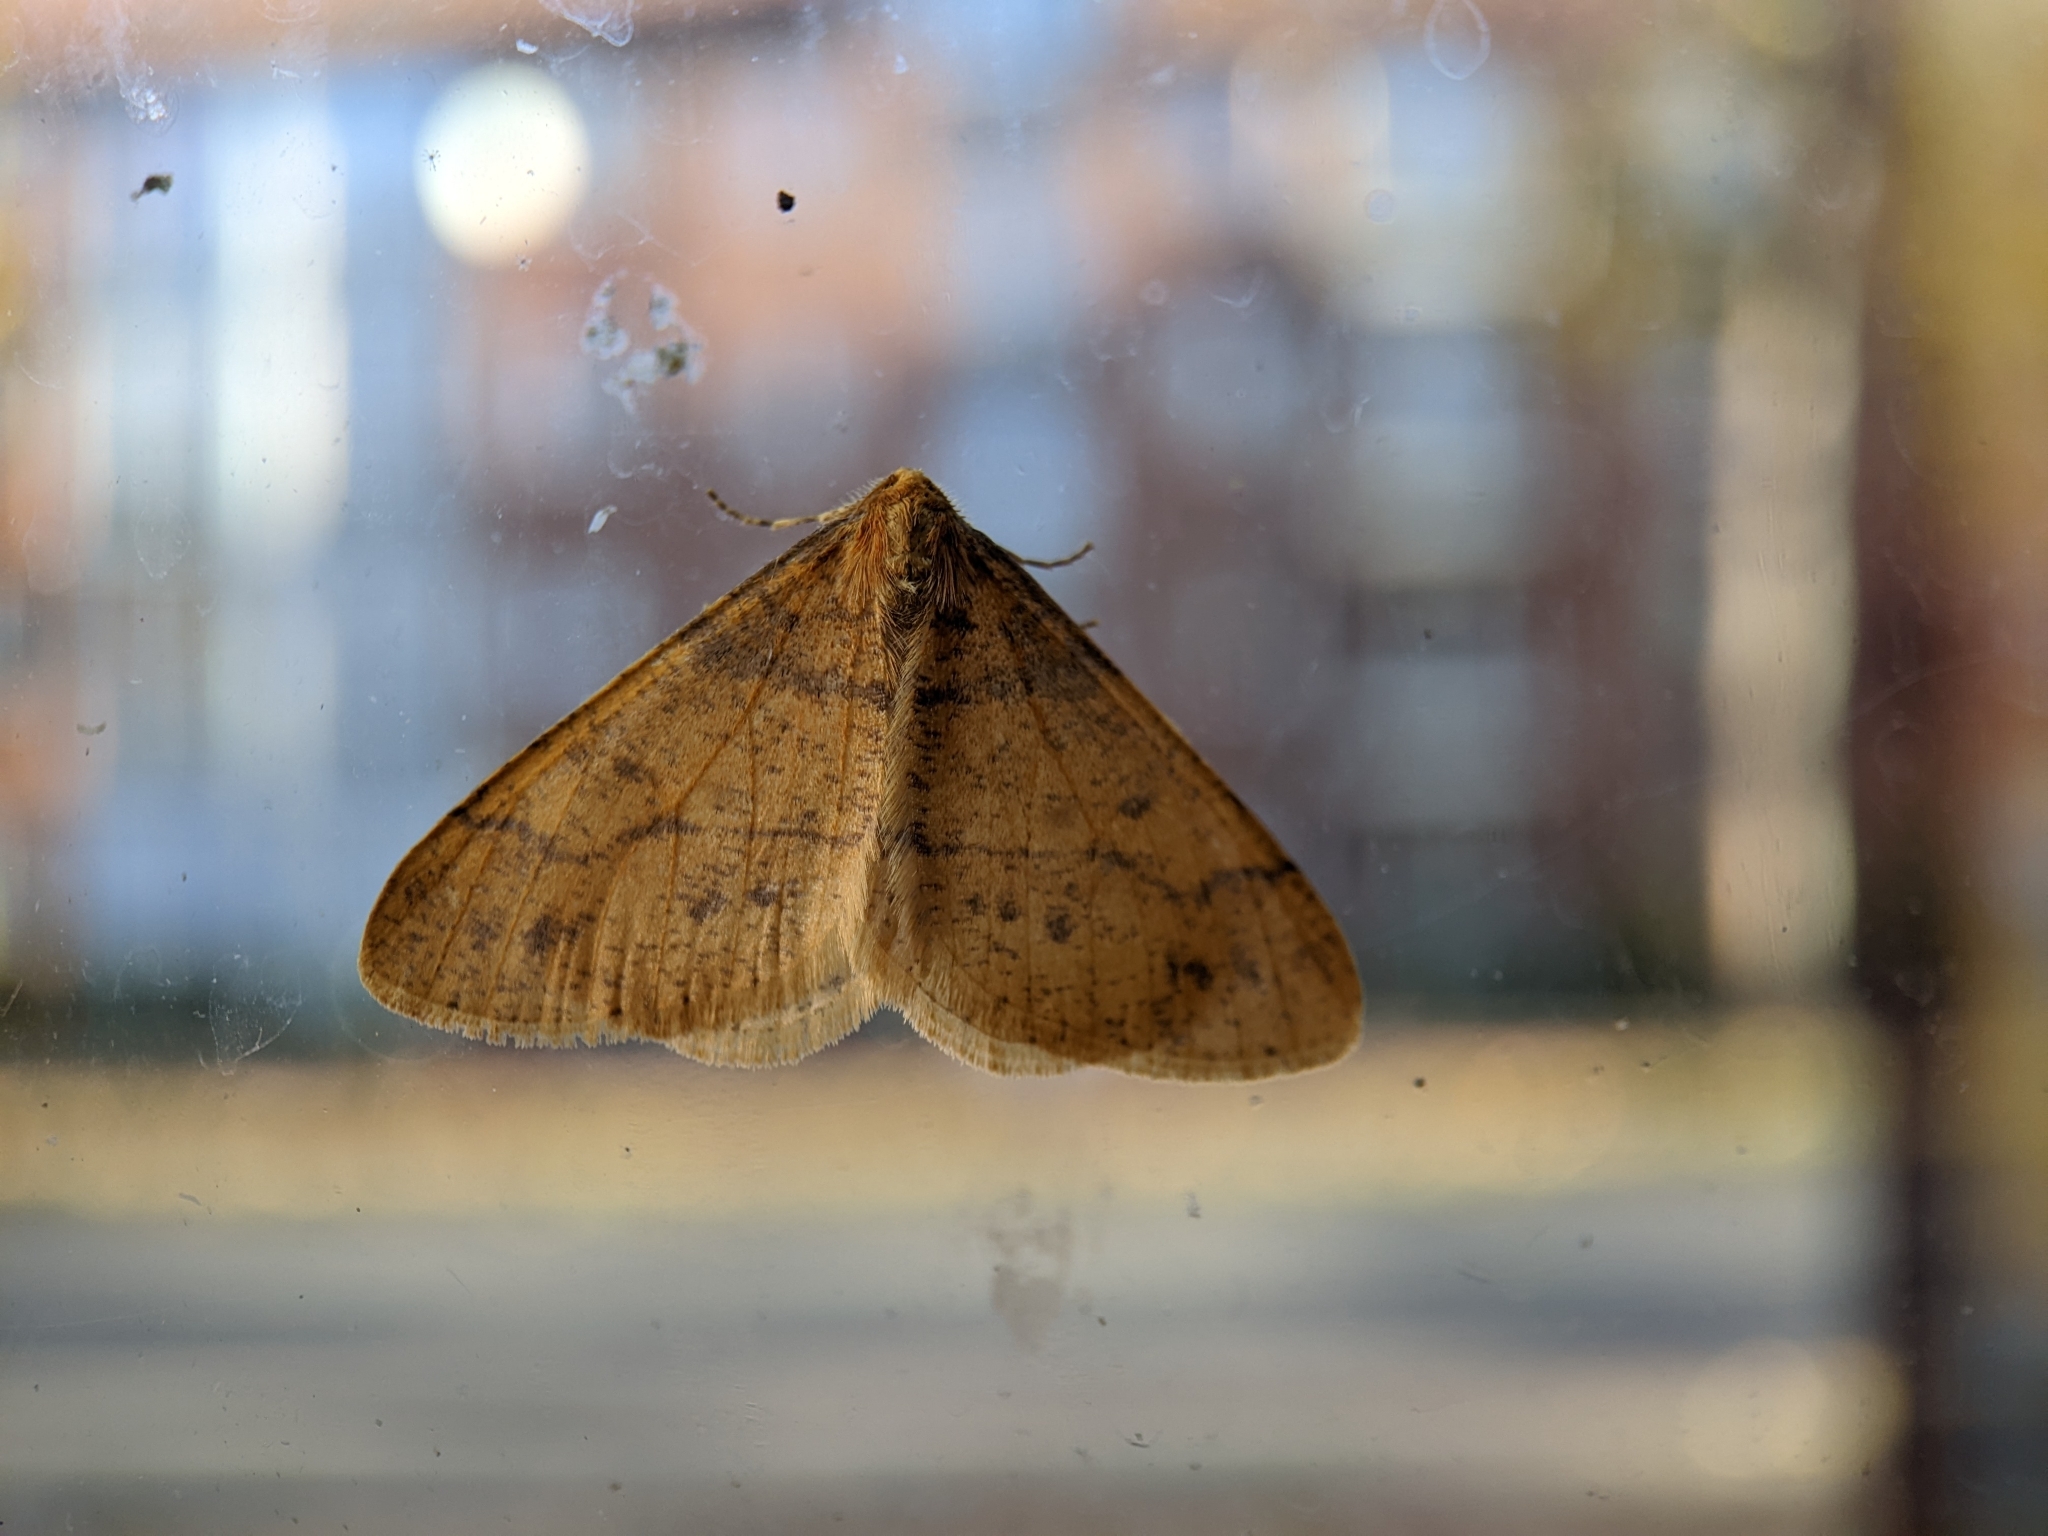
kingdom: Animalia
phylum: Arthropoda
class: Insecta
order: Lepidoptera
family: Geometridae
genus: Agriopis
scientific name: Agriopis aurantiaria
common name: Scarce umber
